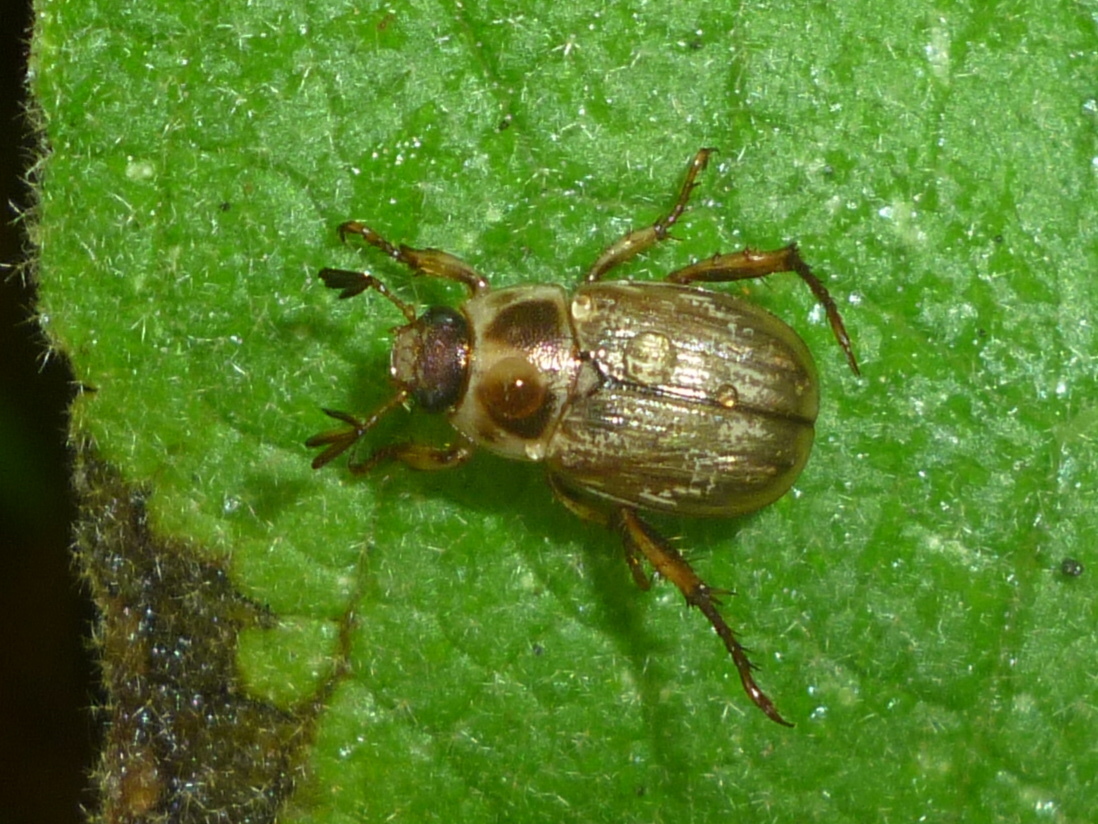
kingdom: Animalia
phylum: Arthropoda
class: Insecta
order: Coleoptera
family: Scarabaeidae
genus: Exomala
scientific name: Exomala orientalis
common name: Oriental beetle
